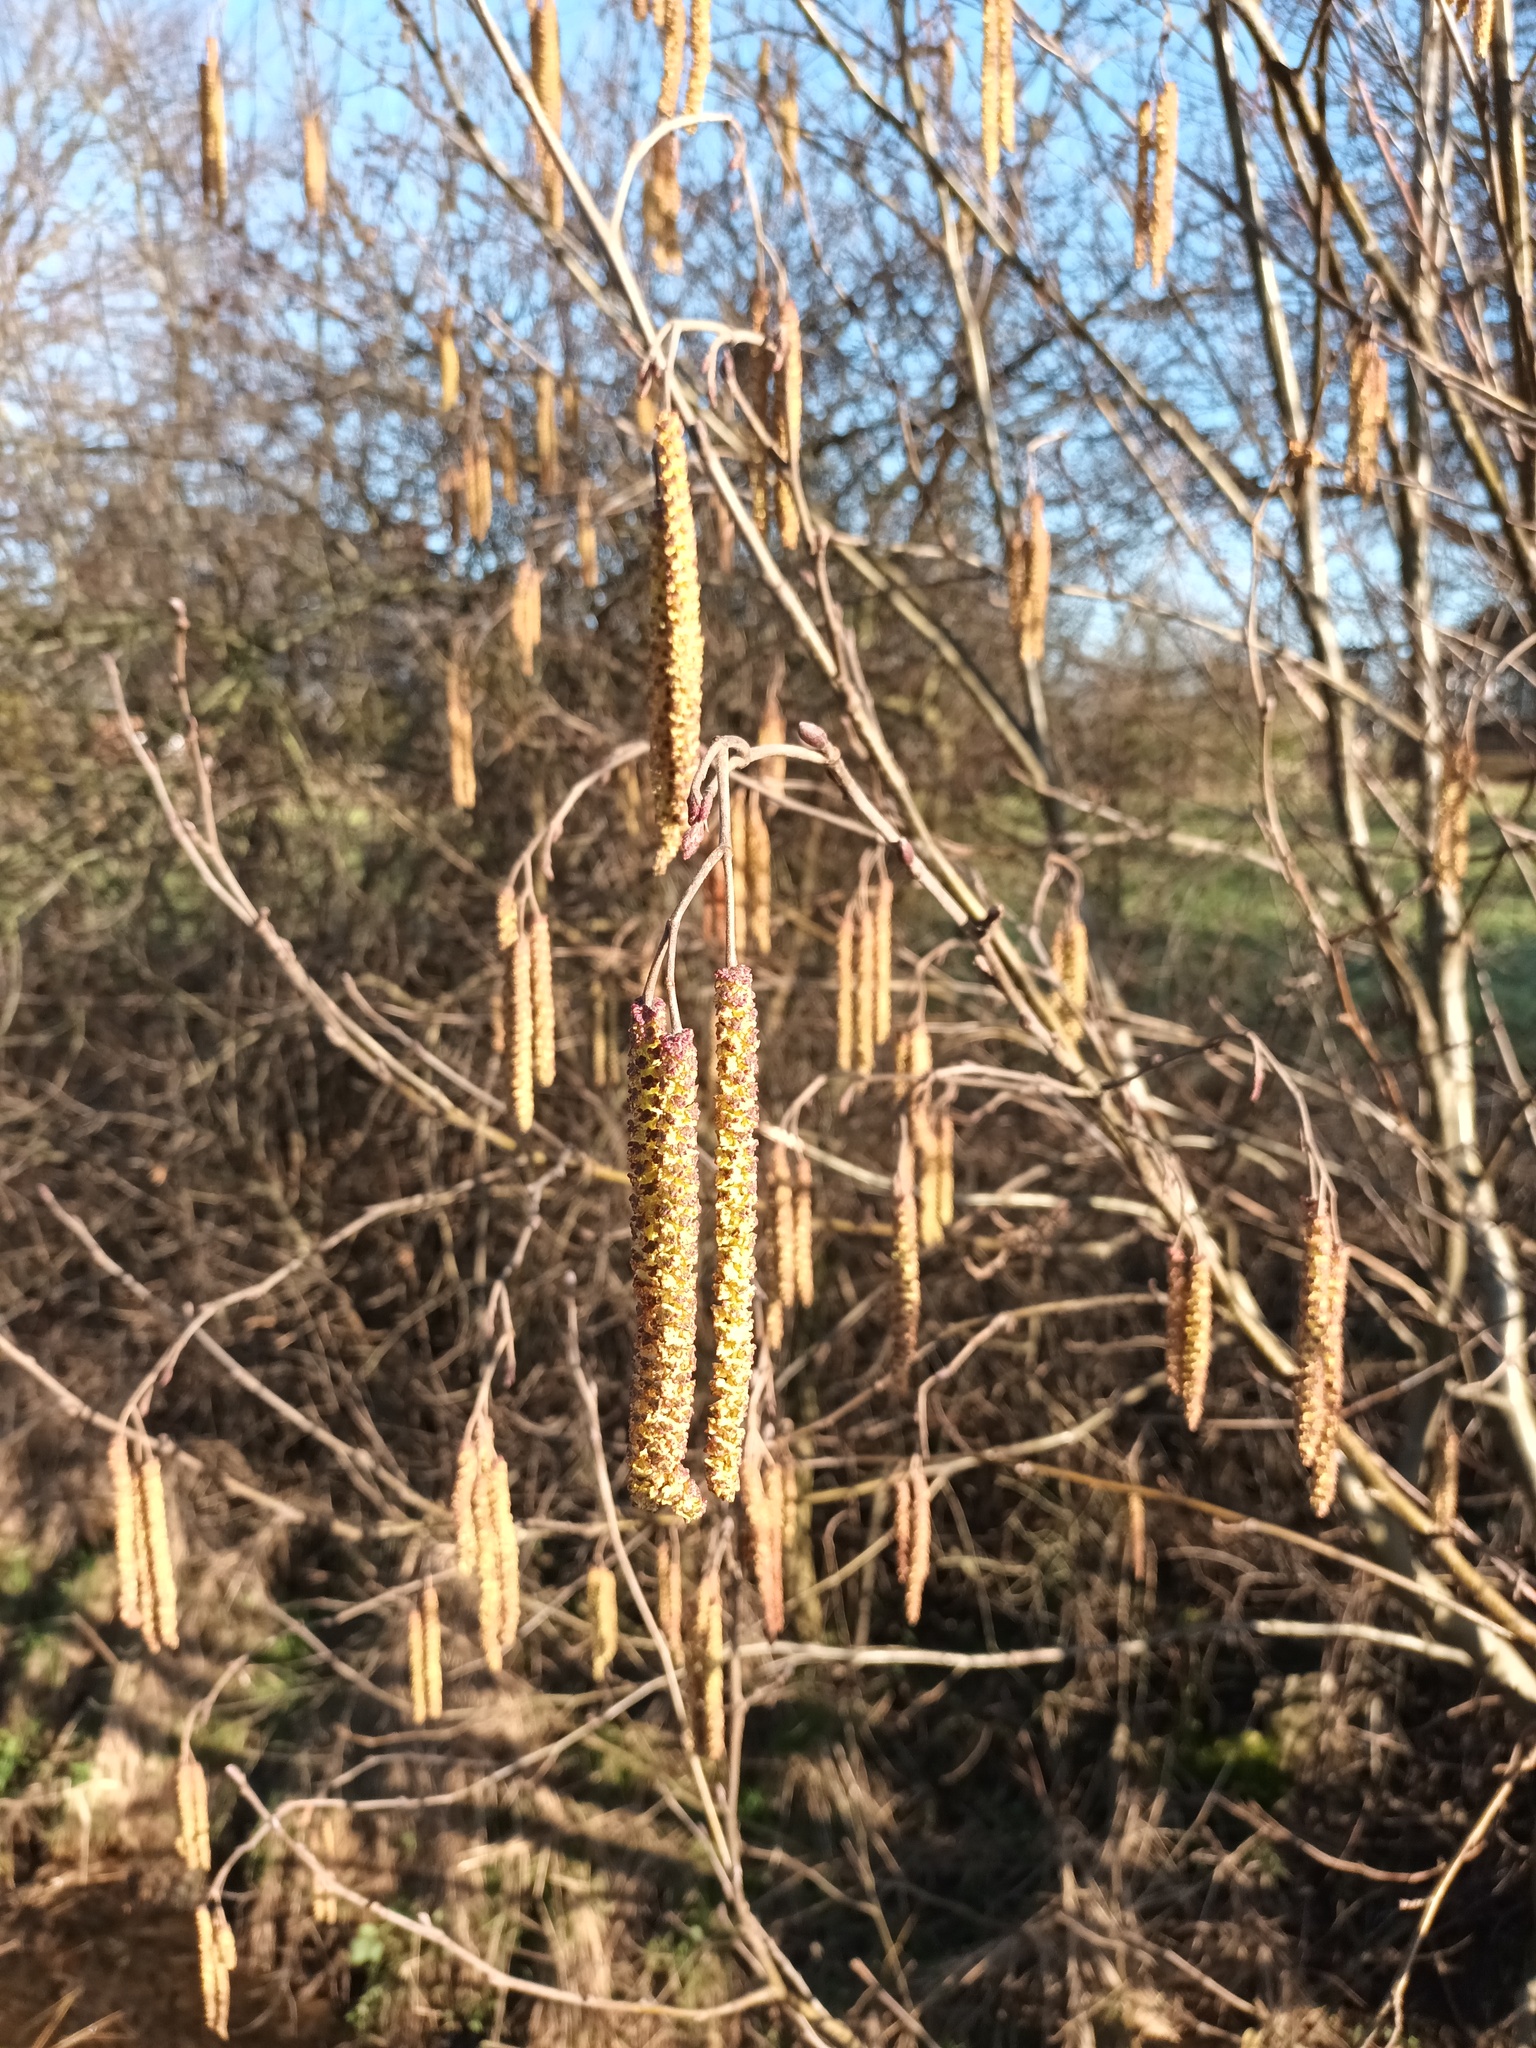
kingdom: Plantae
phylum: Tracheophyta
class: Magnoliopsida
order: Fagales
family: Betulaceae
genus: Corylus
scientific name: Corylus avellana
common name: European hazel
